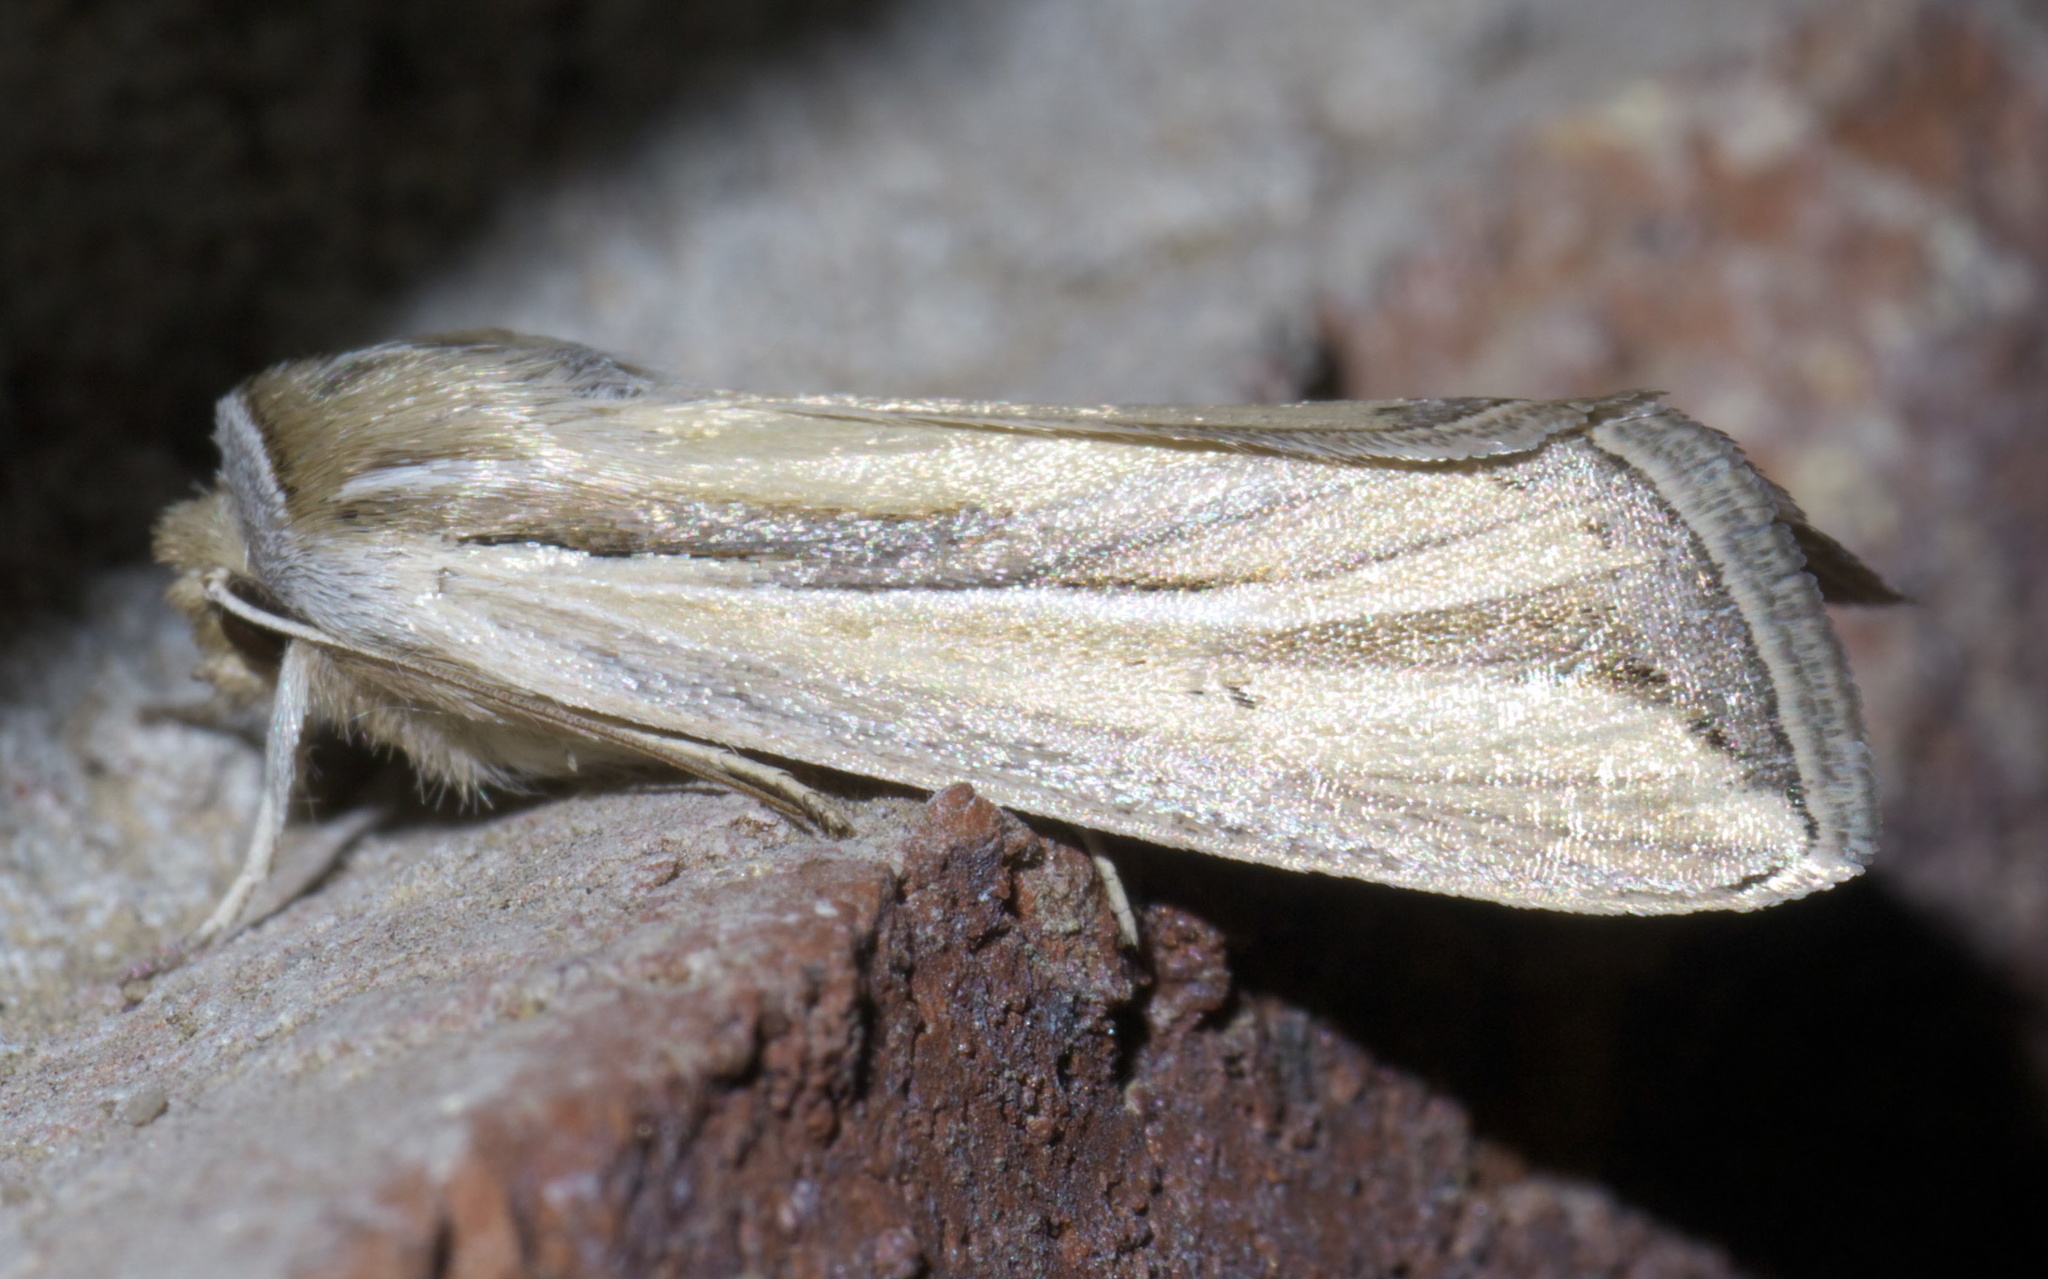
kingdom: Animalia
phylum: Arthropoda
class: Insecta
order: Lepidoptera
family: Noctuidae
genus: Dargida
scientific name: Dargida diffusa
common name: Wheat head armyworm
